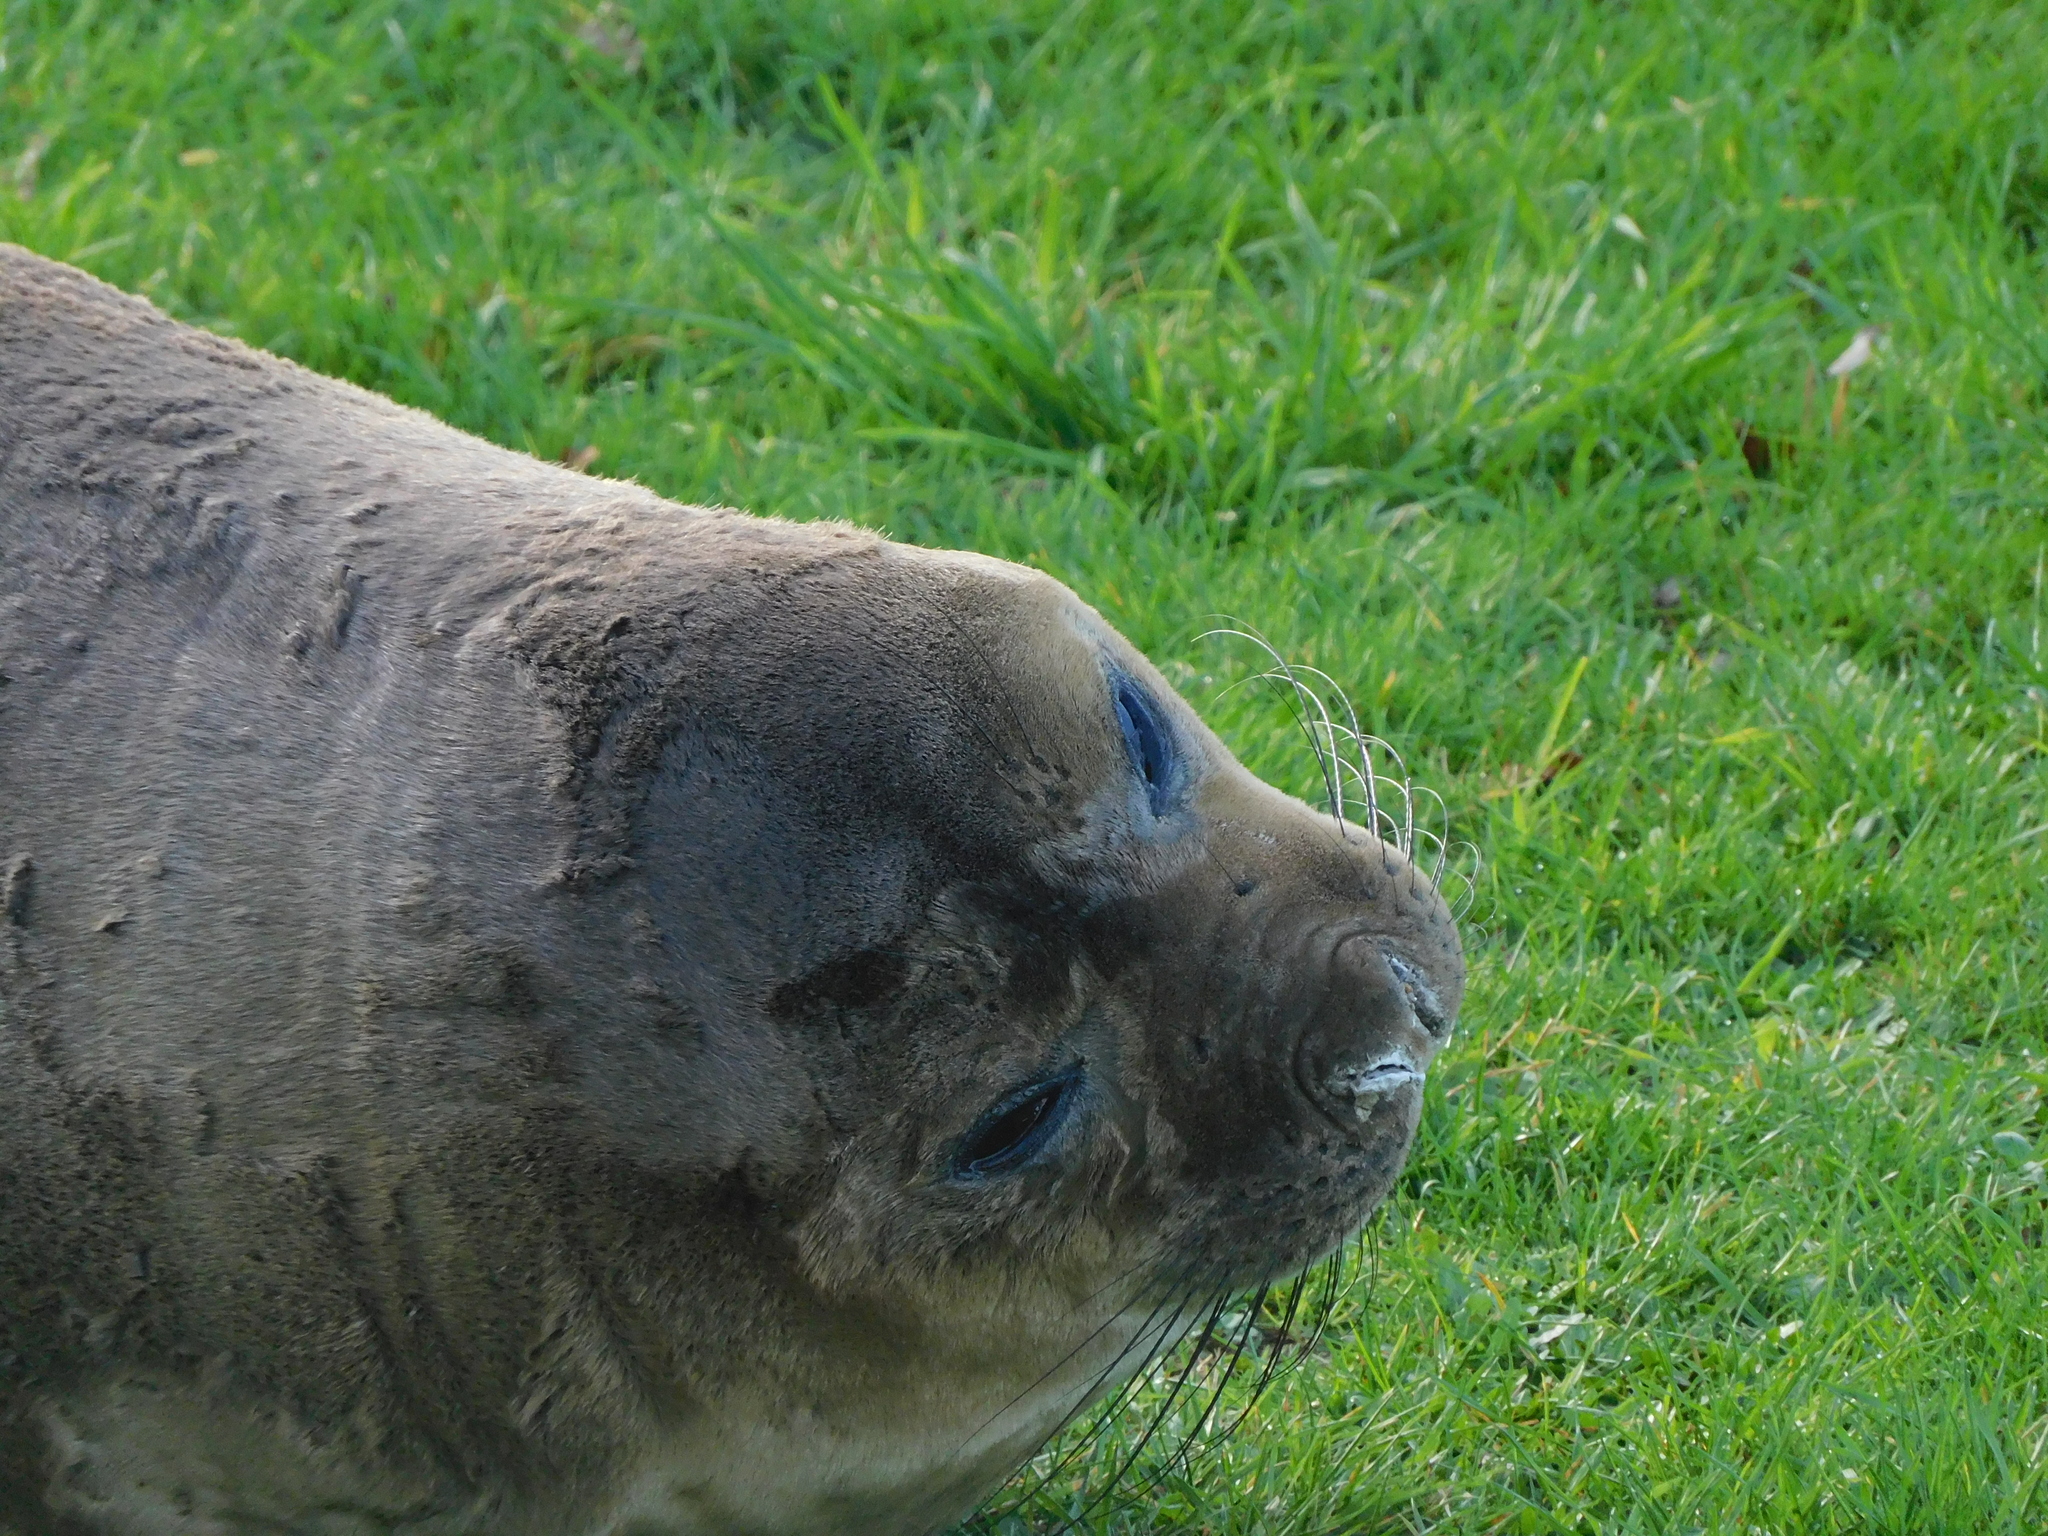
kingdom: Animalia
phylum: Chordata
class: Mammalia
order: Carnivora
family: Phocidae
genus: Mirounga
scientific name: Mirounga leonina
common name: Southern elephant seal
